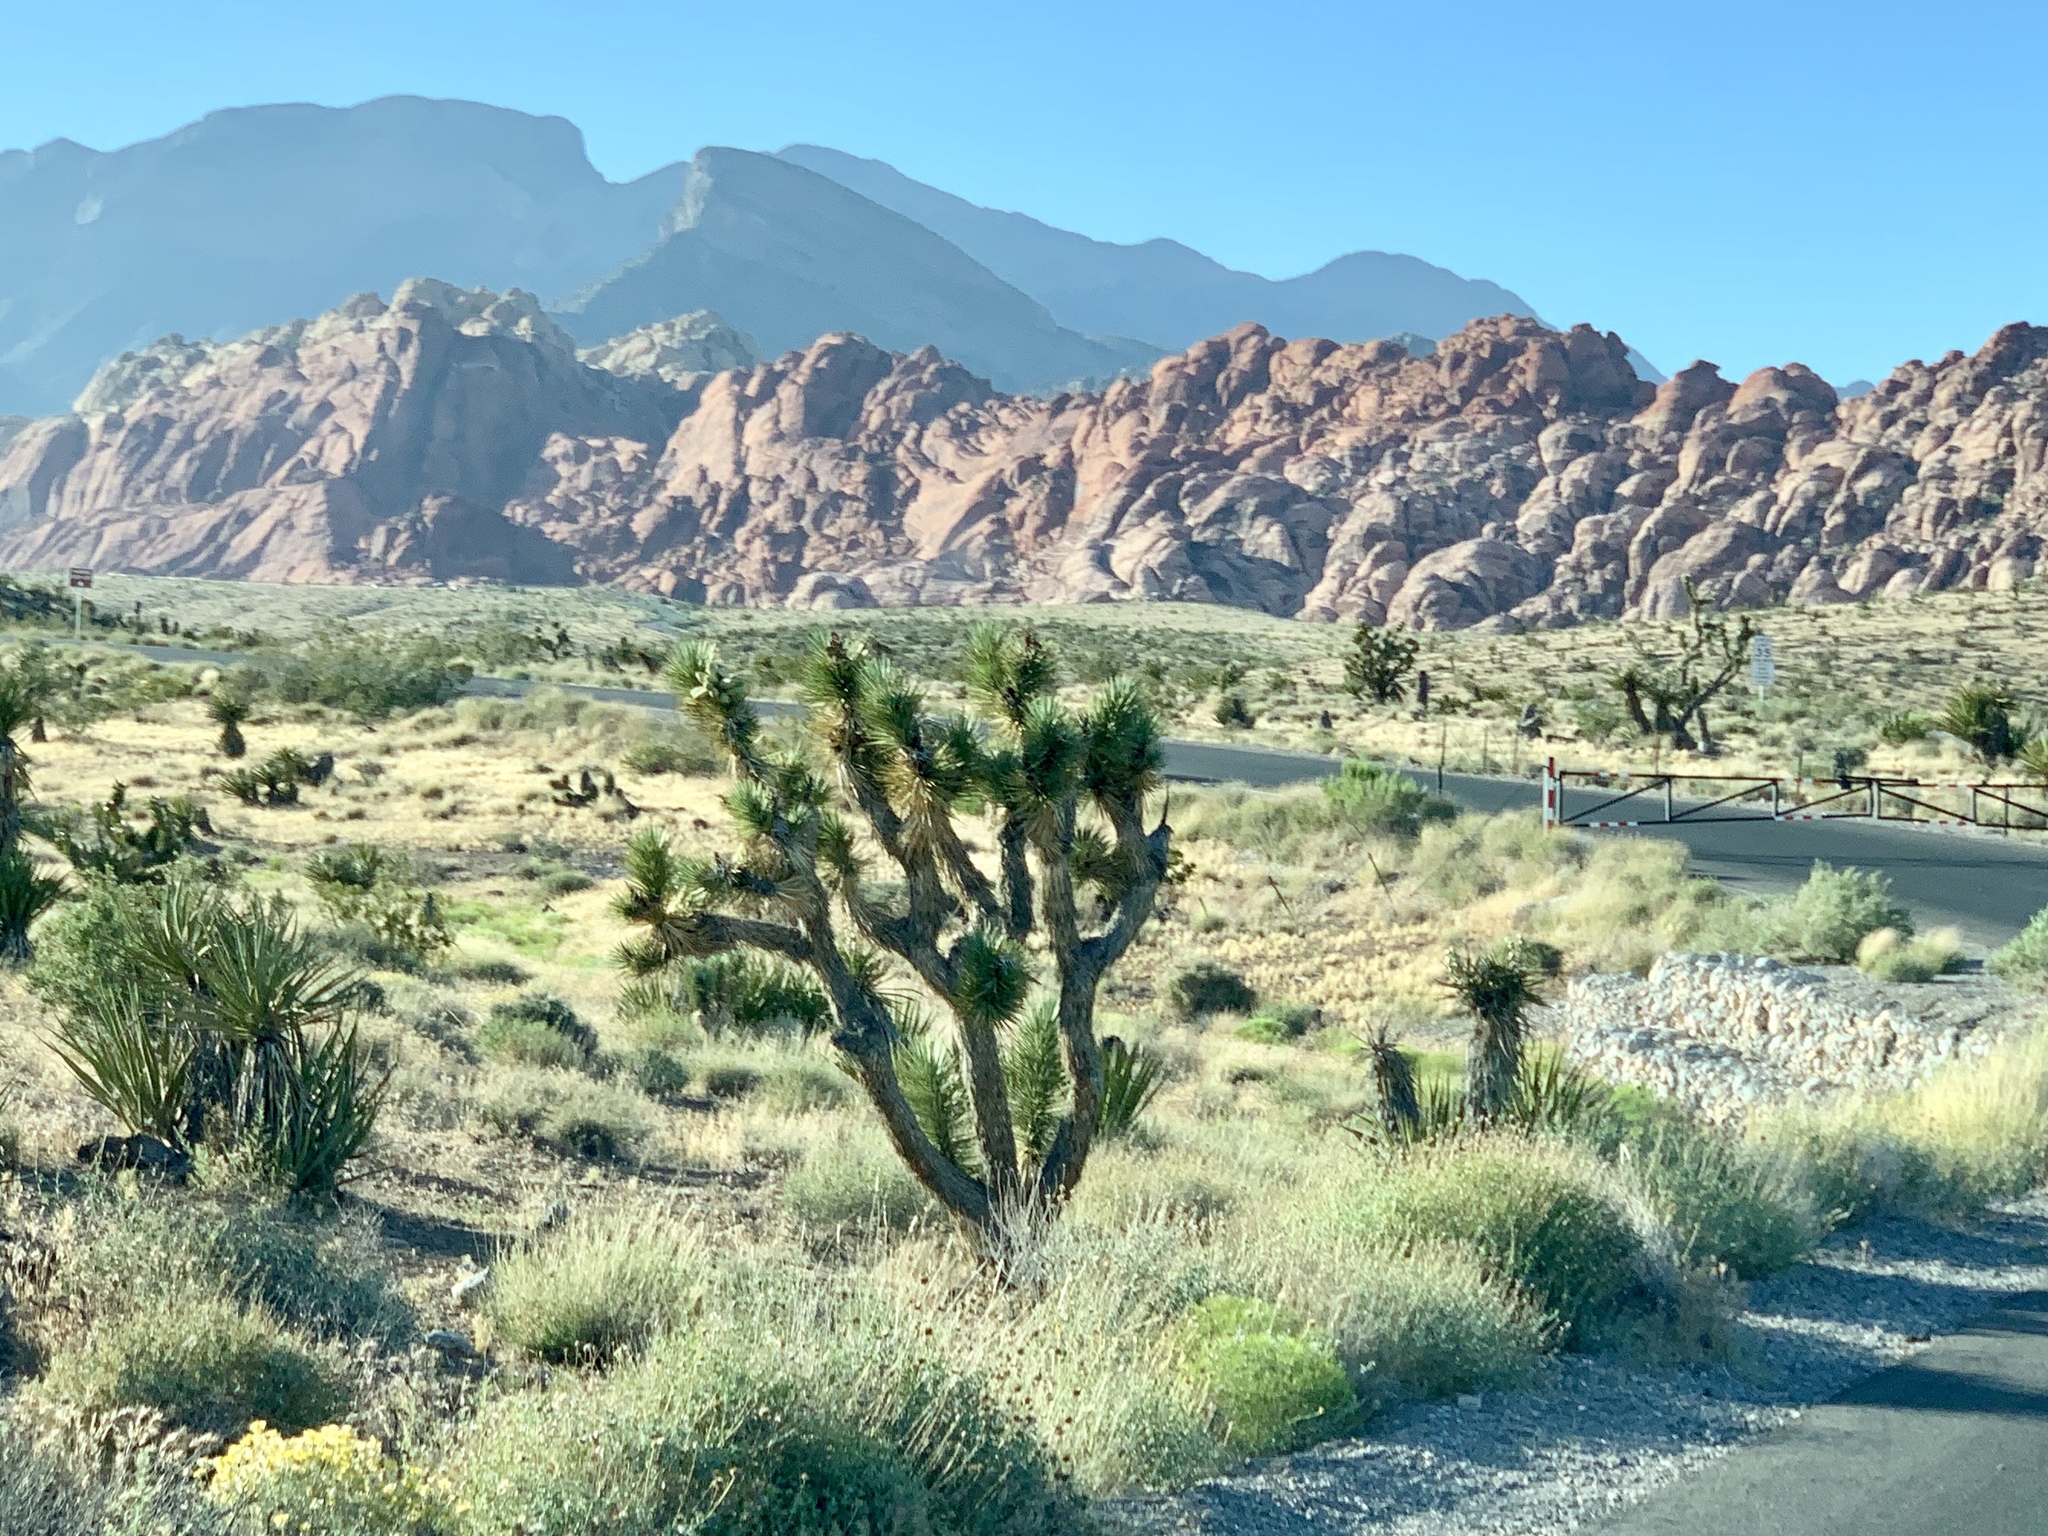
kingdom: Plantae
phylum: Tracheophyta
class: Liliopsida
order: Asparagales
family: Asparagaceae
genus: Yucca
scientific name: Yucca brevifolia
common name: Joshua tree
